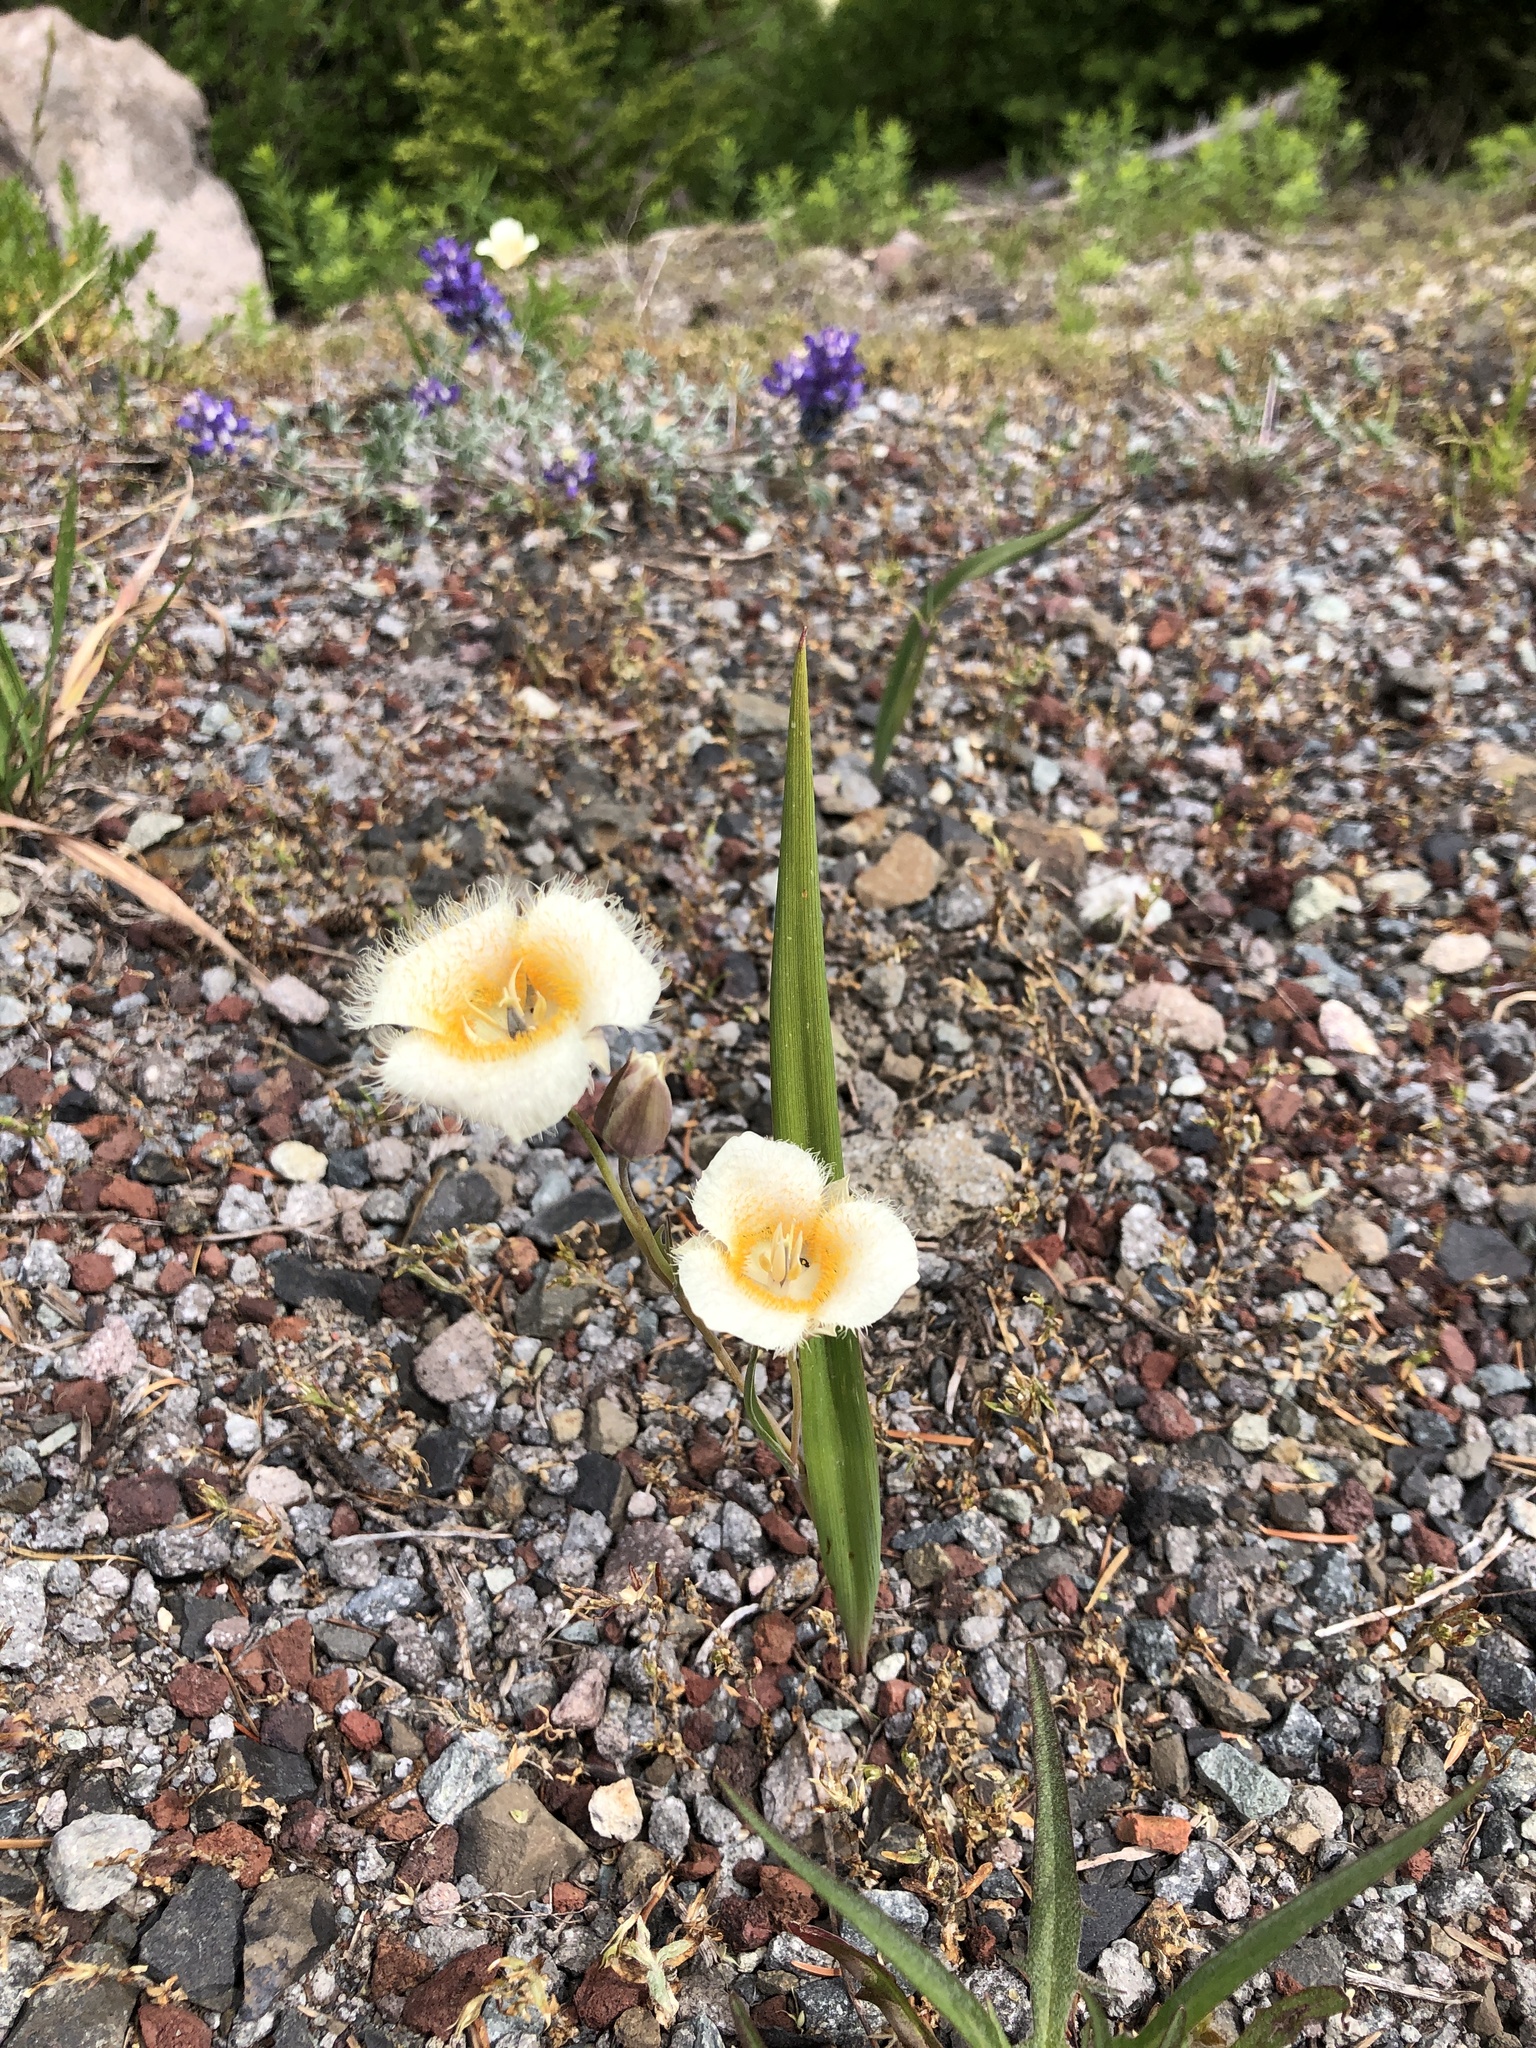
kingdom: Plantae
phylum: Tracheophyta
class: Liliopsida
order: Liliales
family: Liliaceae
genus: Calochortus
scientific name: Calochortus subalpinus
